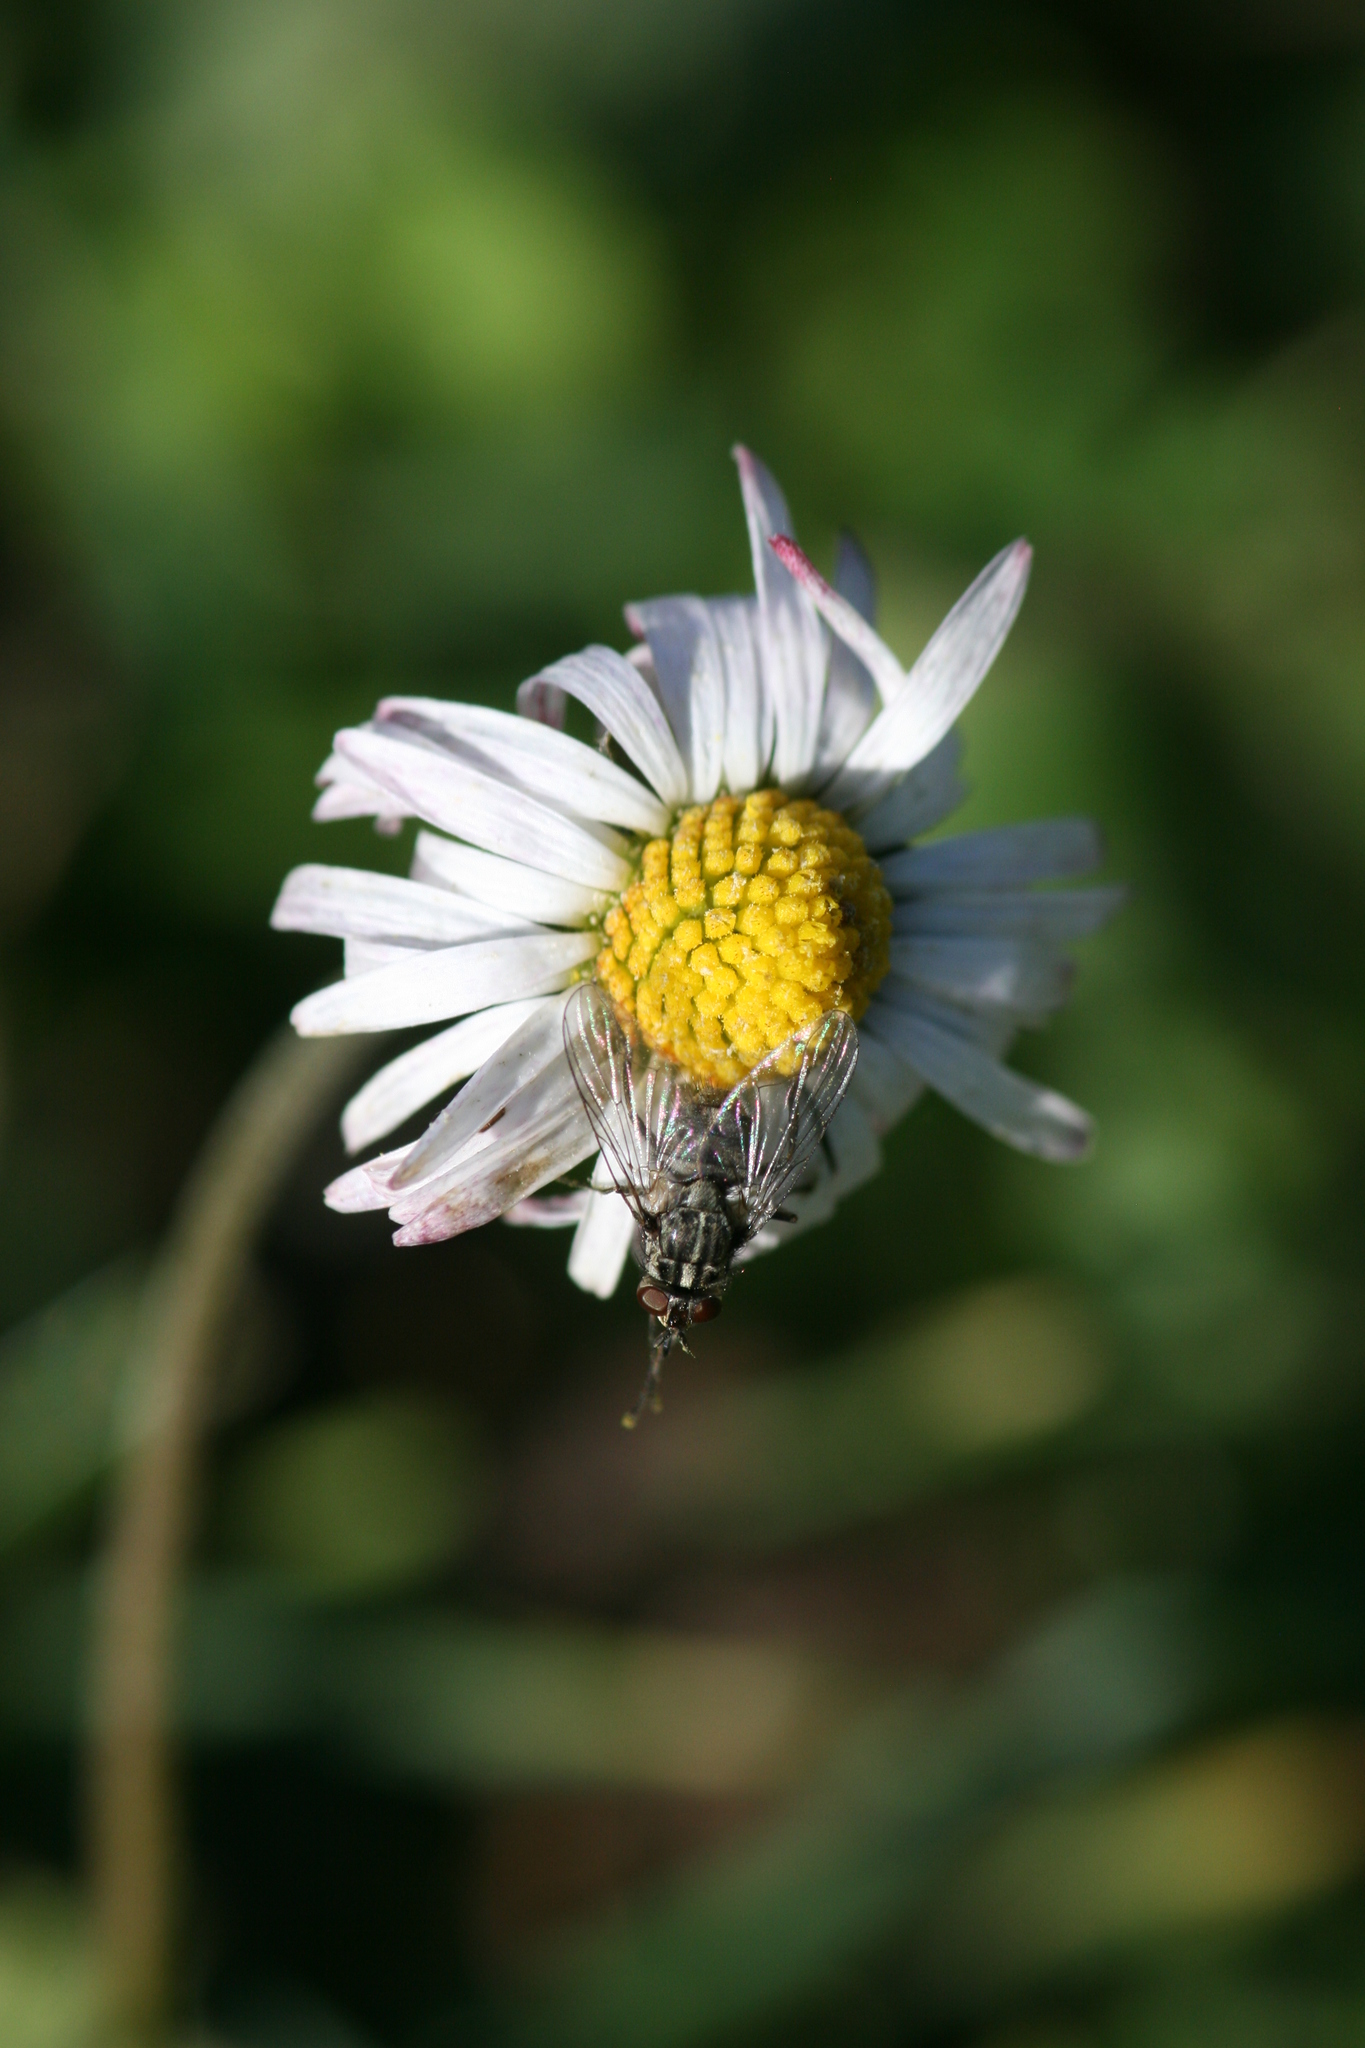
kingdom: Animalia
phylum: Arthropoda
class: Insecta
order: Diptera
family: Muscidae
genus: Stomoxys
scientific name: Stomoxys calcitrans
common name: Stable fly
